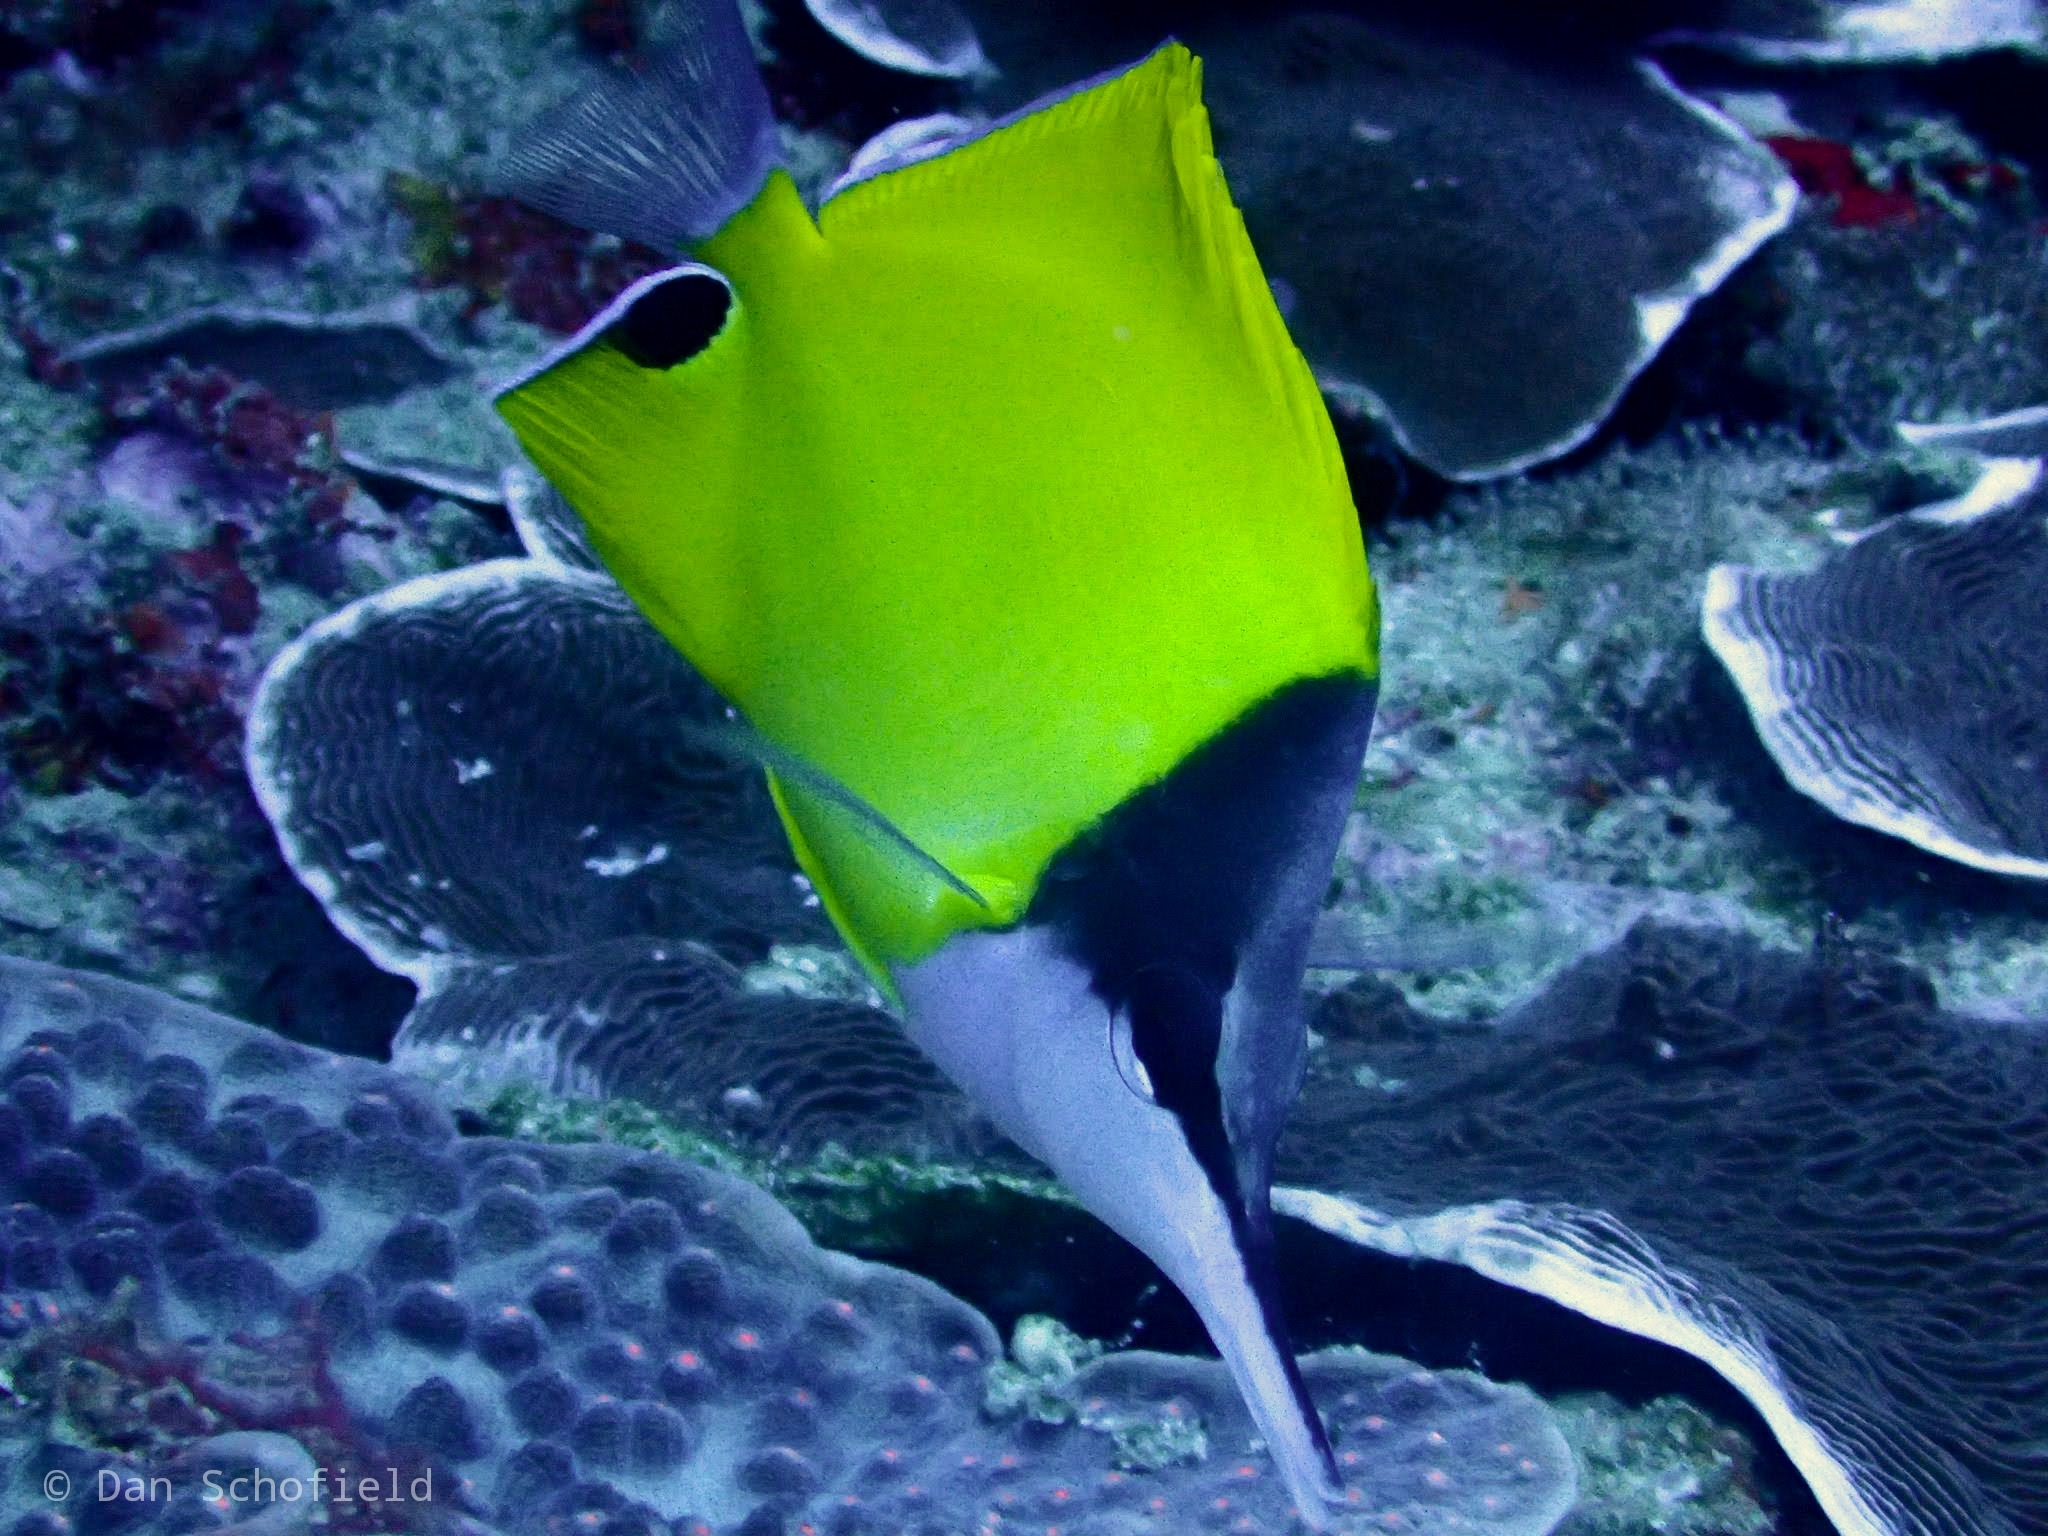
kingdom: Animalia
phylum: Chordata
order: Perciformes
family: Chaetodontidae
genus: Forcipiger
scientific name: Forcipiger flavissimus
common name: Forcepsfish
